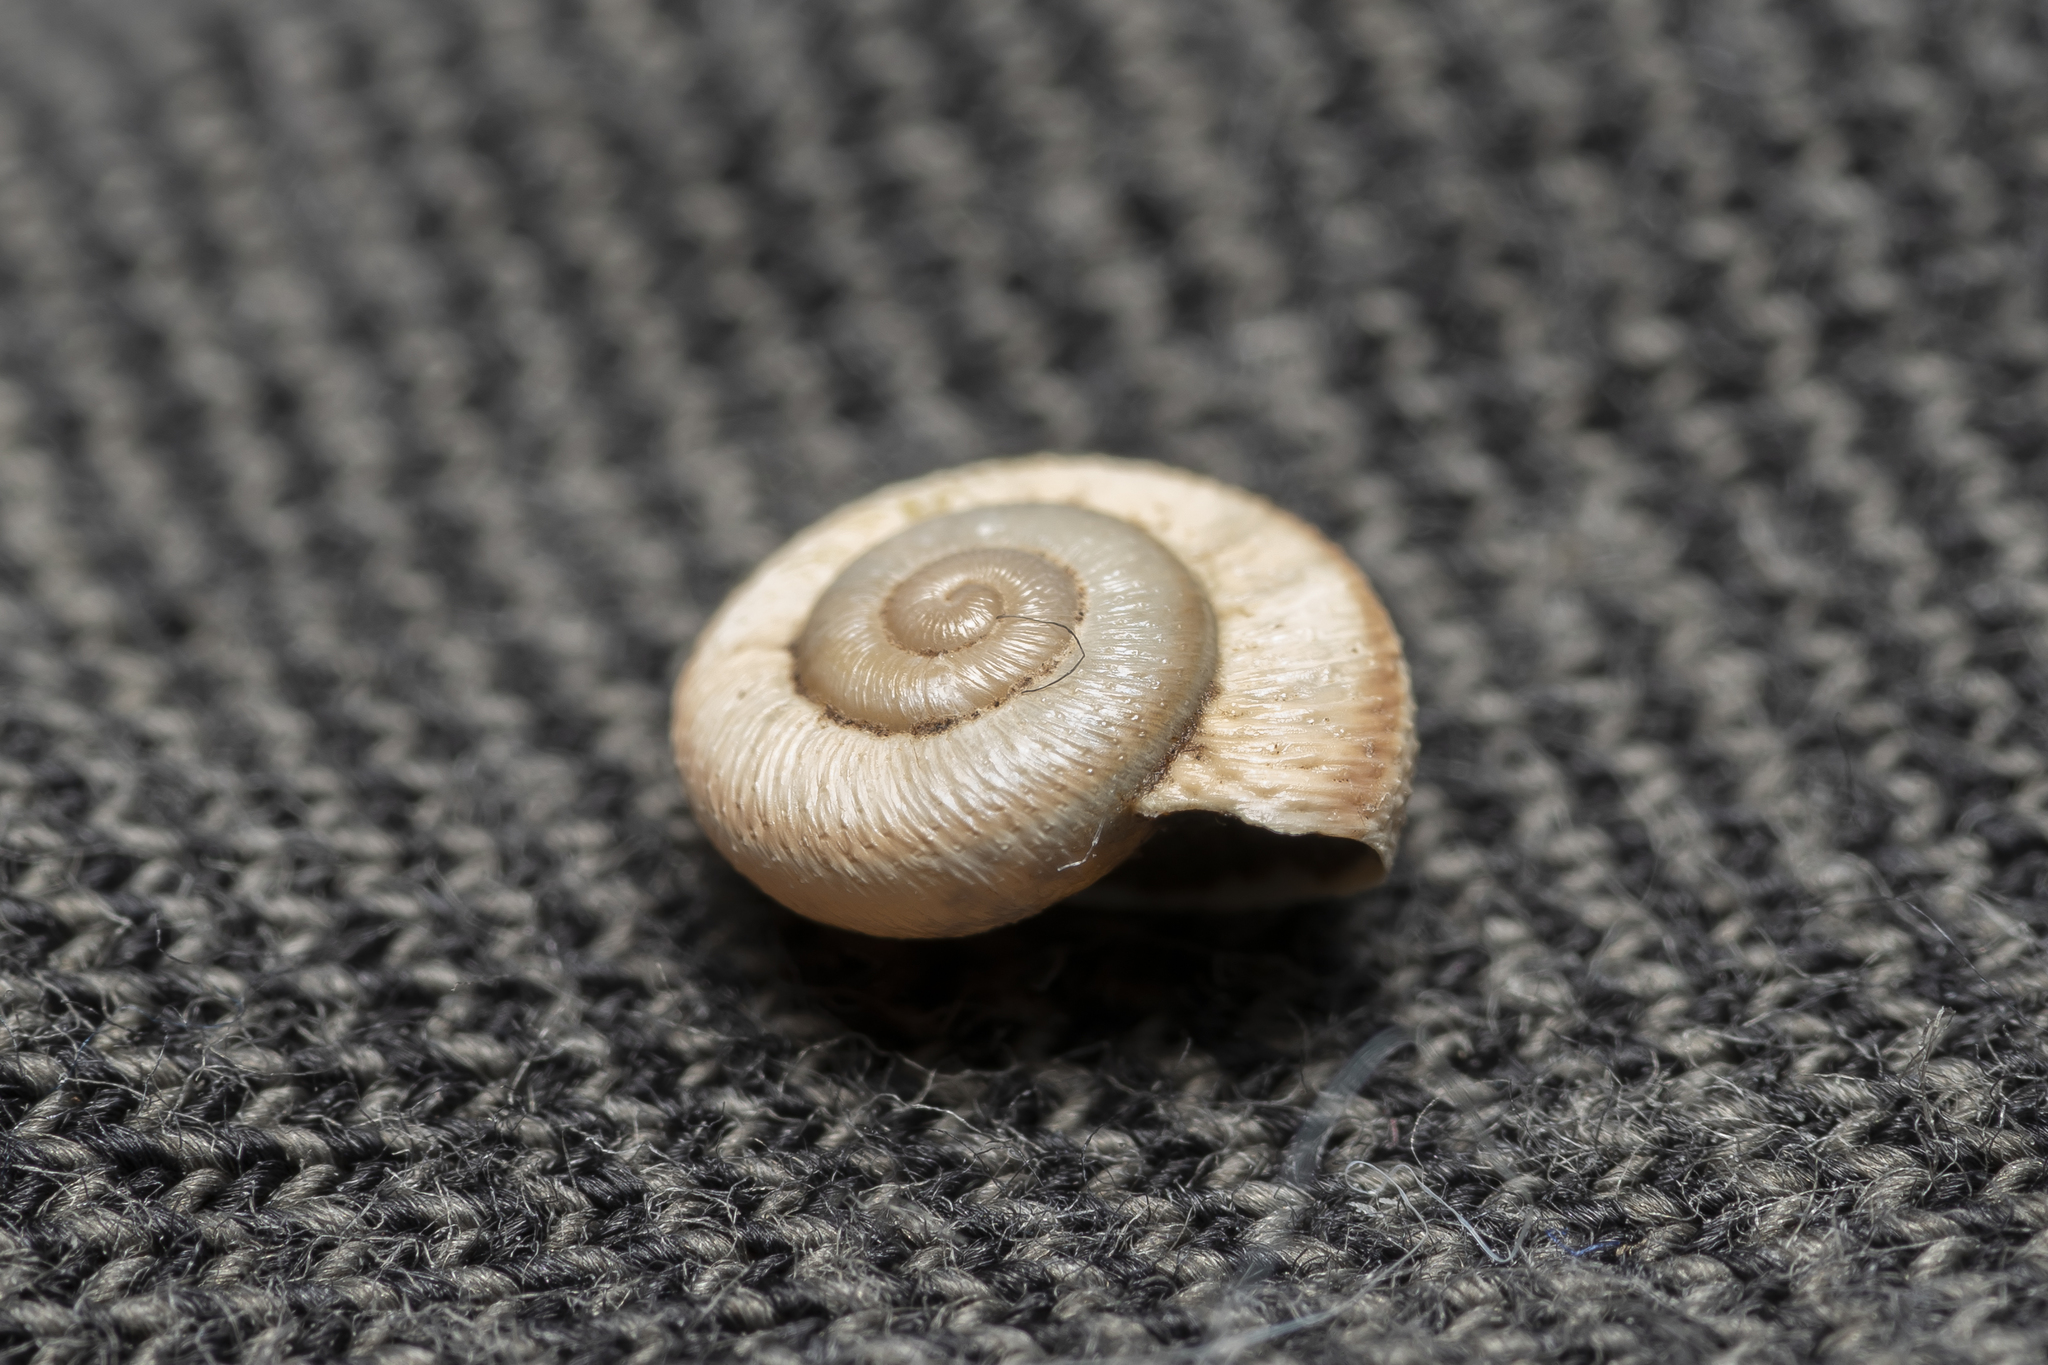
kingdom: Animalia
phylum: Mollusca
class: Gastropoda
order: Stylommatophora
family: Hygromiidae
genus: Metafruticicola
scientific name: Metafruticicola pellita
